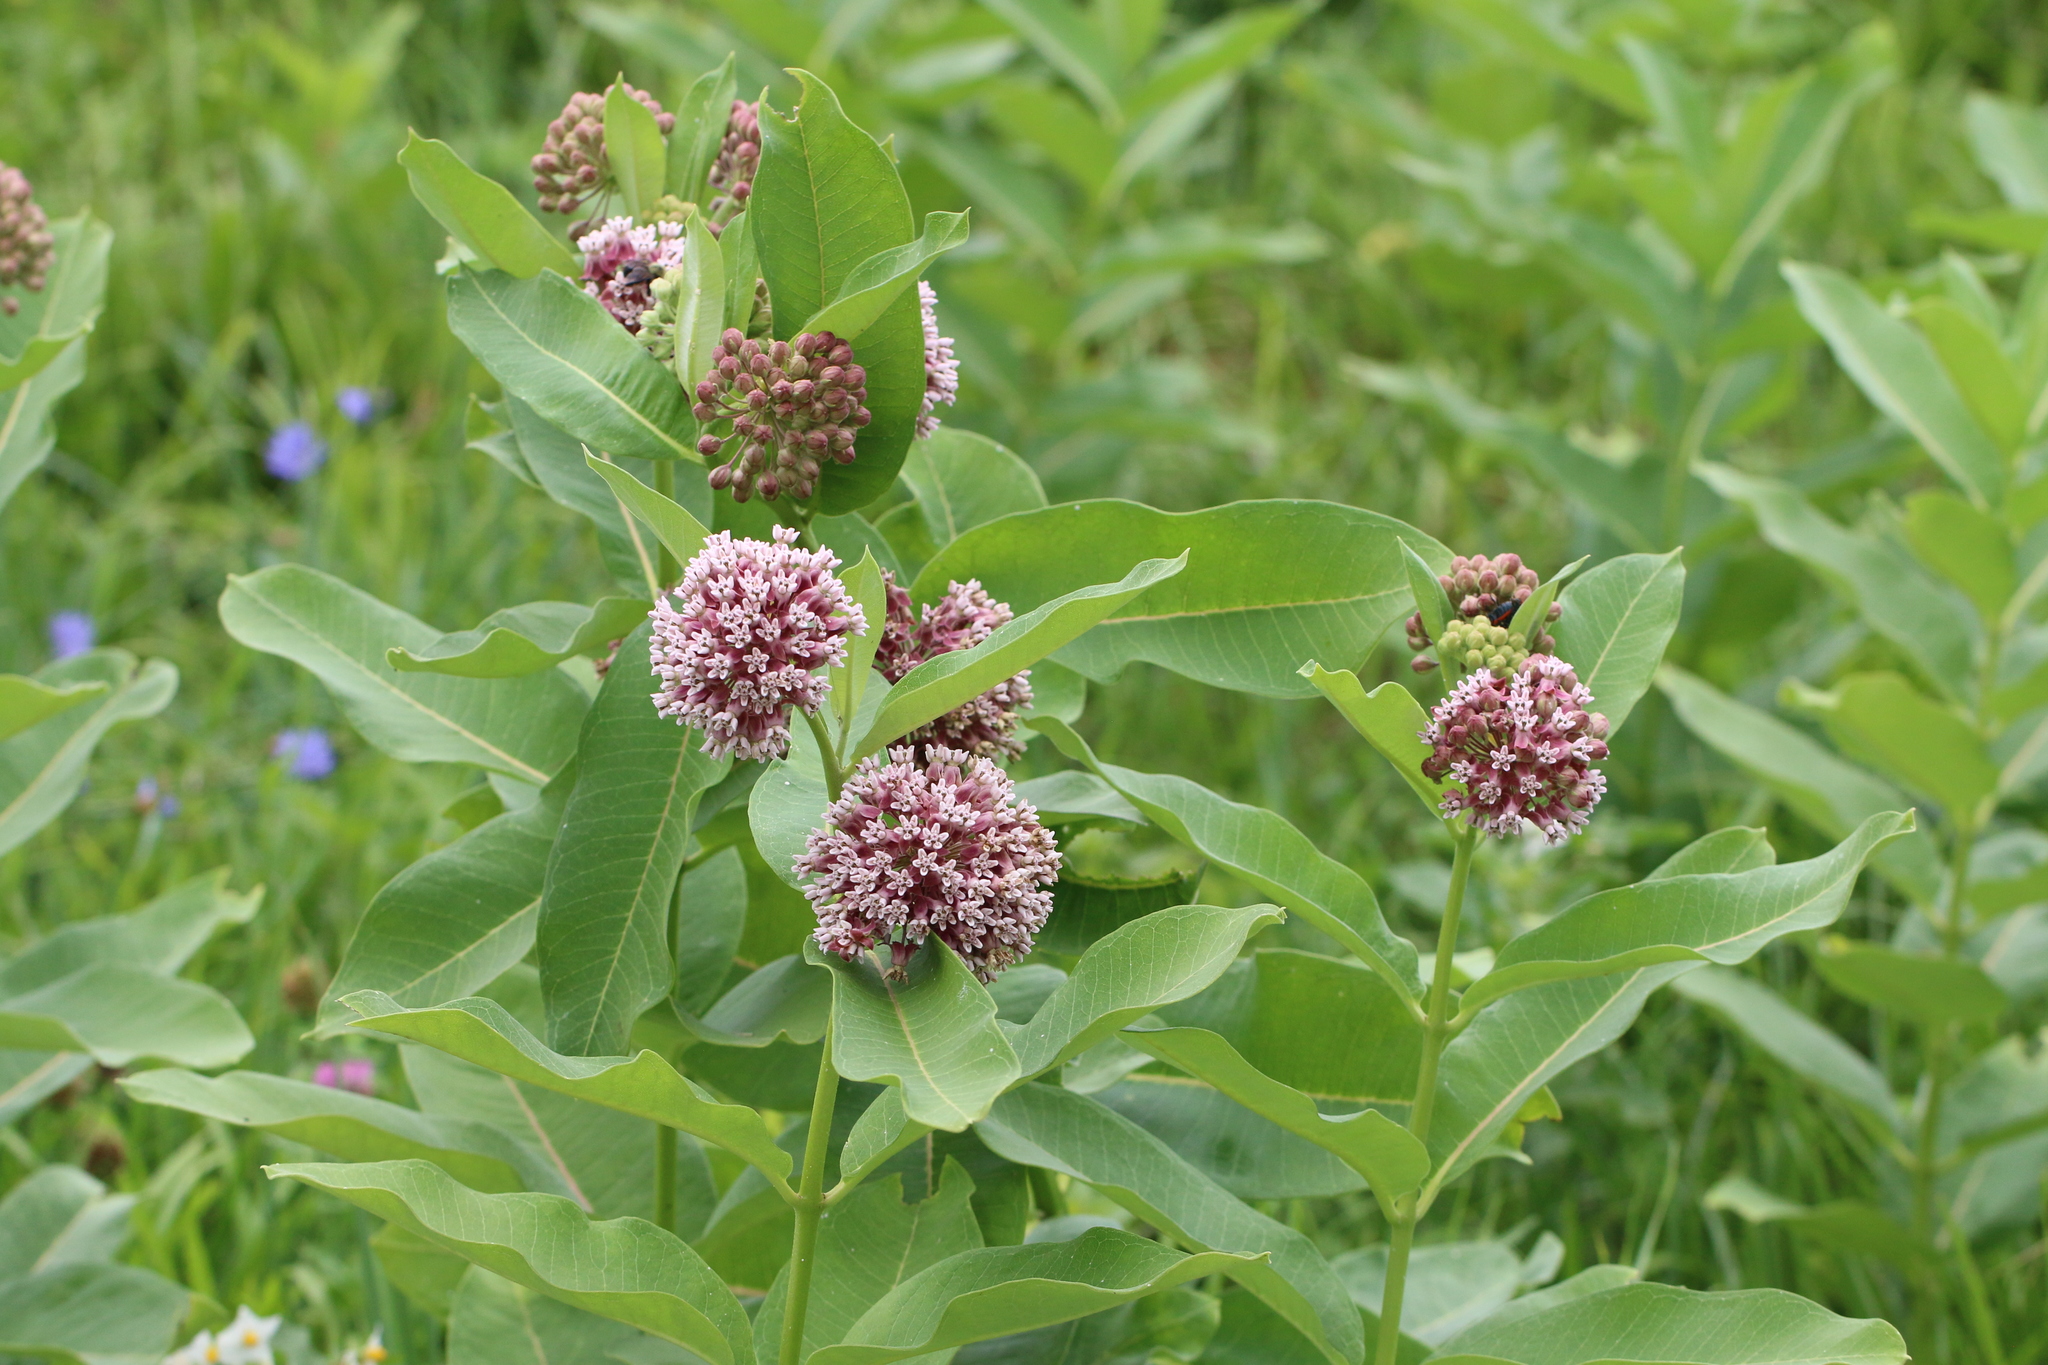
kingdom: Plantae
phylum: Tracheophyta
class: Magnoliopsida
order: Gentianales
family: Apocynaceae
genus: Asclepias
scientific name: Asclepias syriaca
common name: Common milkweed
